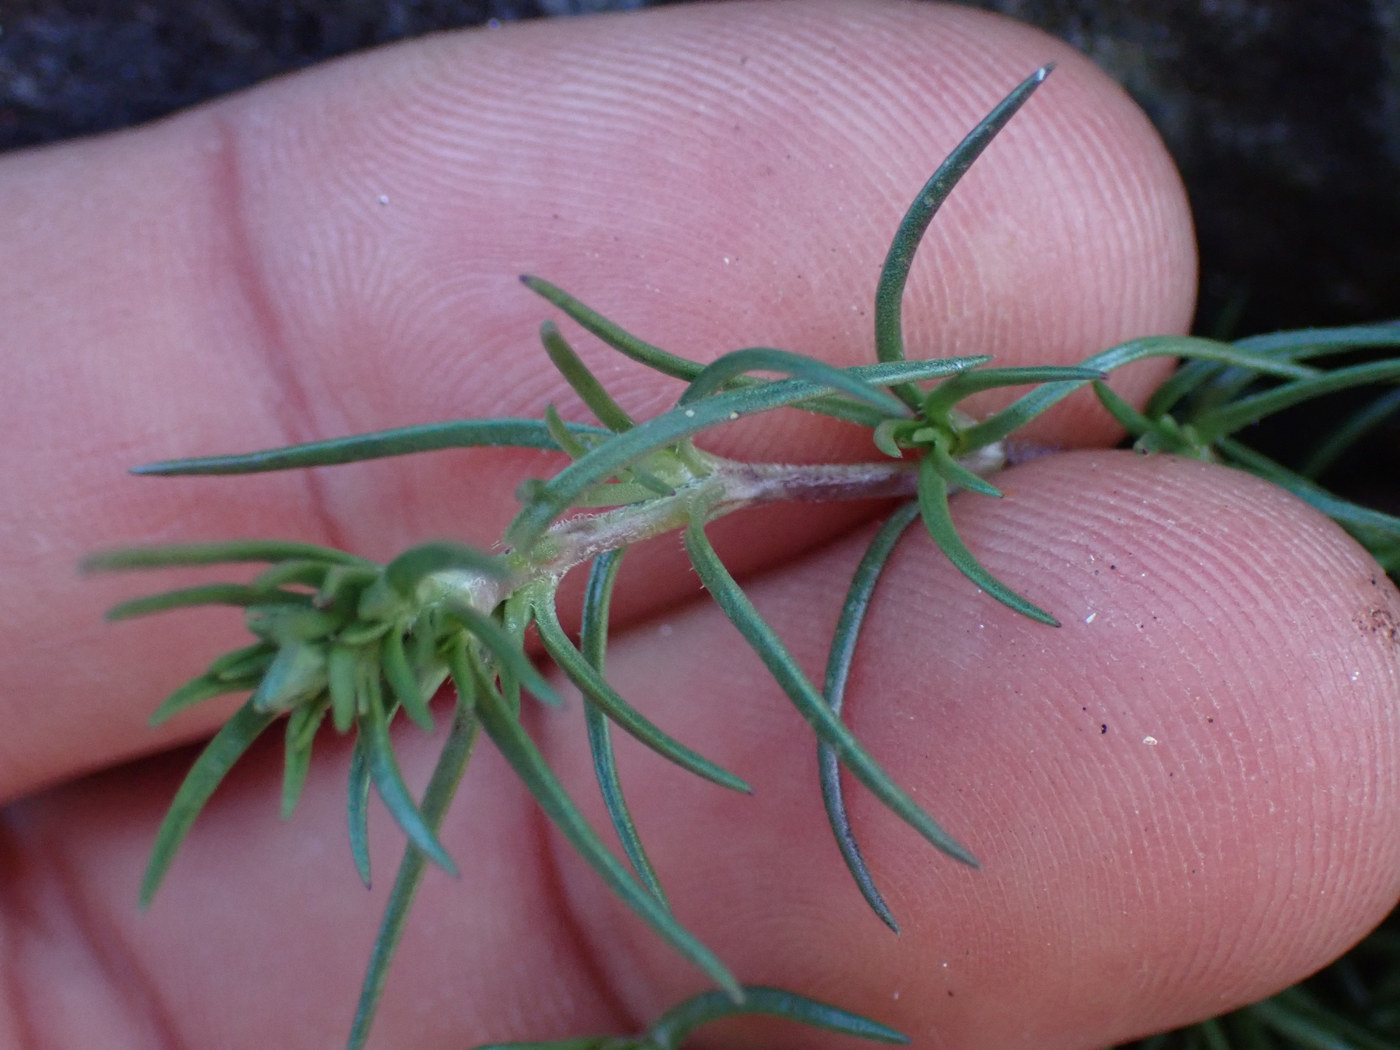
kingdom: Plantae
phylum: Tracheophyta
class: Magnoliopsida
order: Caryophyllales
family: Caryophyllaceae
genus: Scleranthus
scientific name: Scleranthus annuus
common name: Annual knawel
